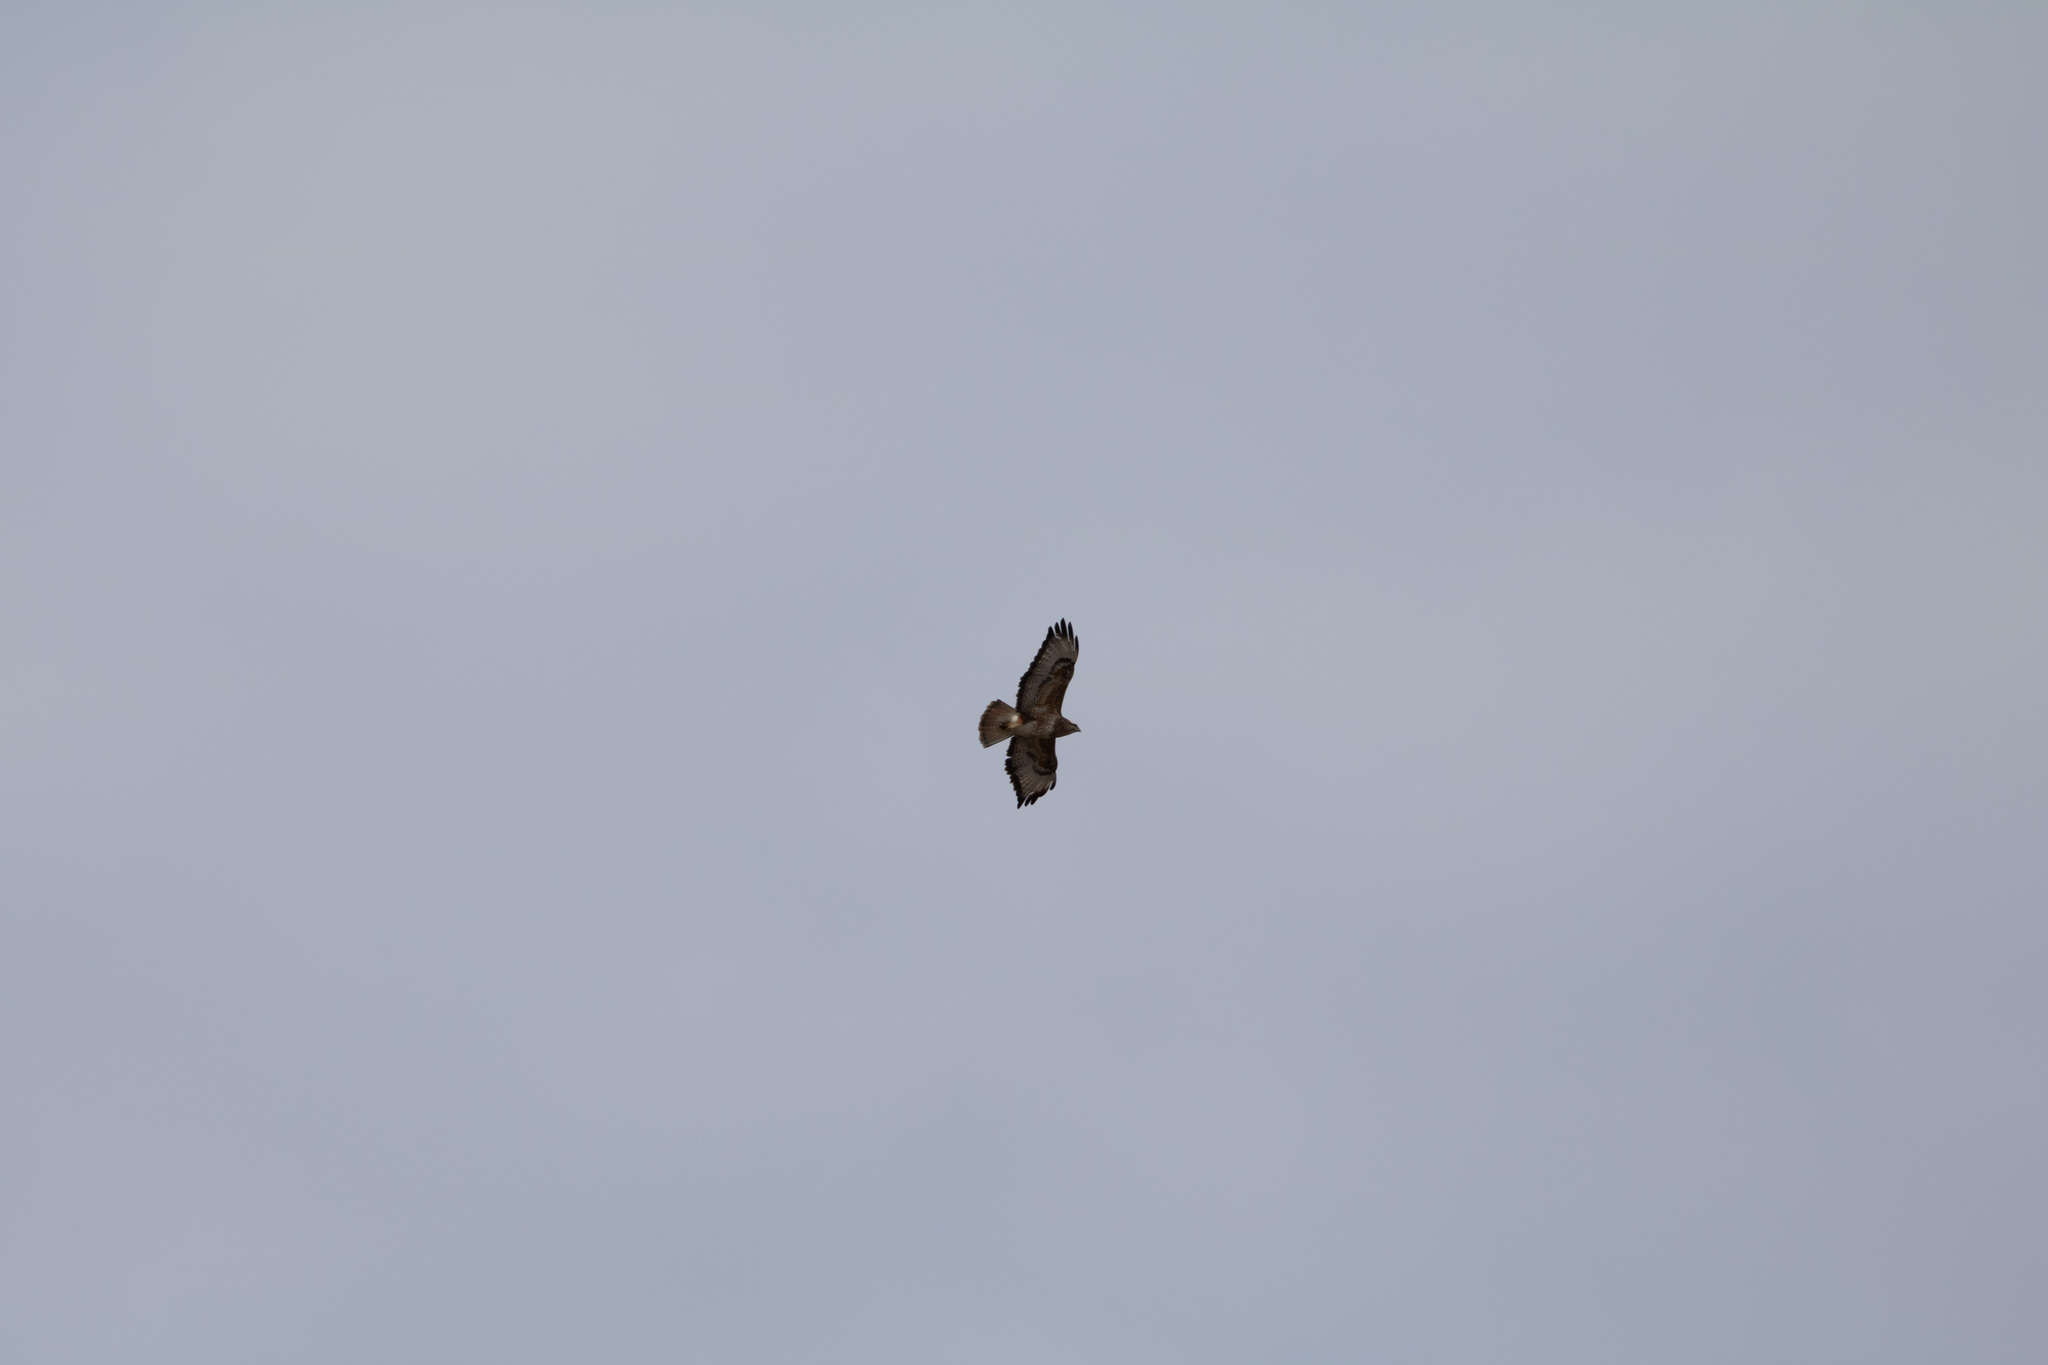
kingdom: Animalia
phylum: Chordata
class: Aves
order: Accipitriformes
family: Accipitridae
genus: Buteo
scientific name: Buteo buteo
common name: Common buzzard
